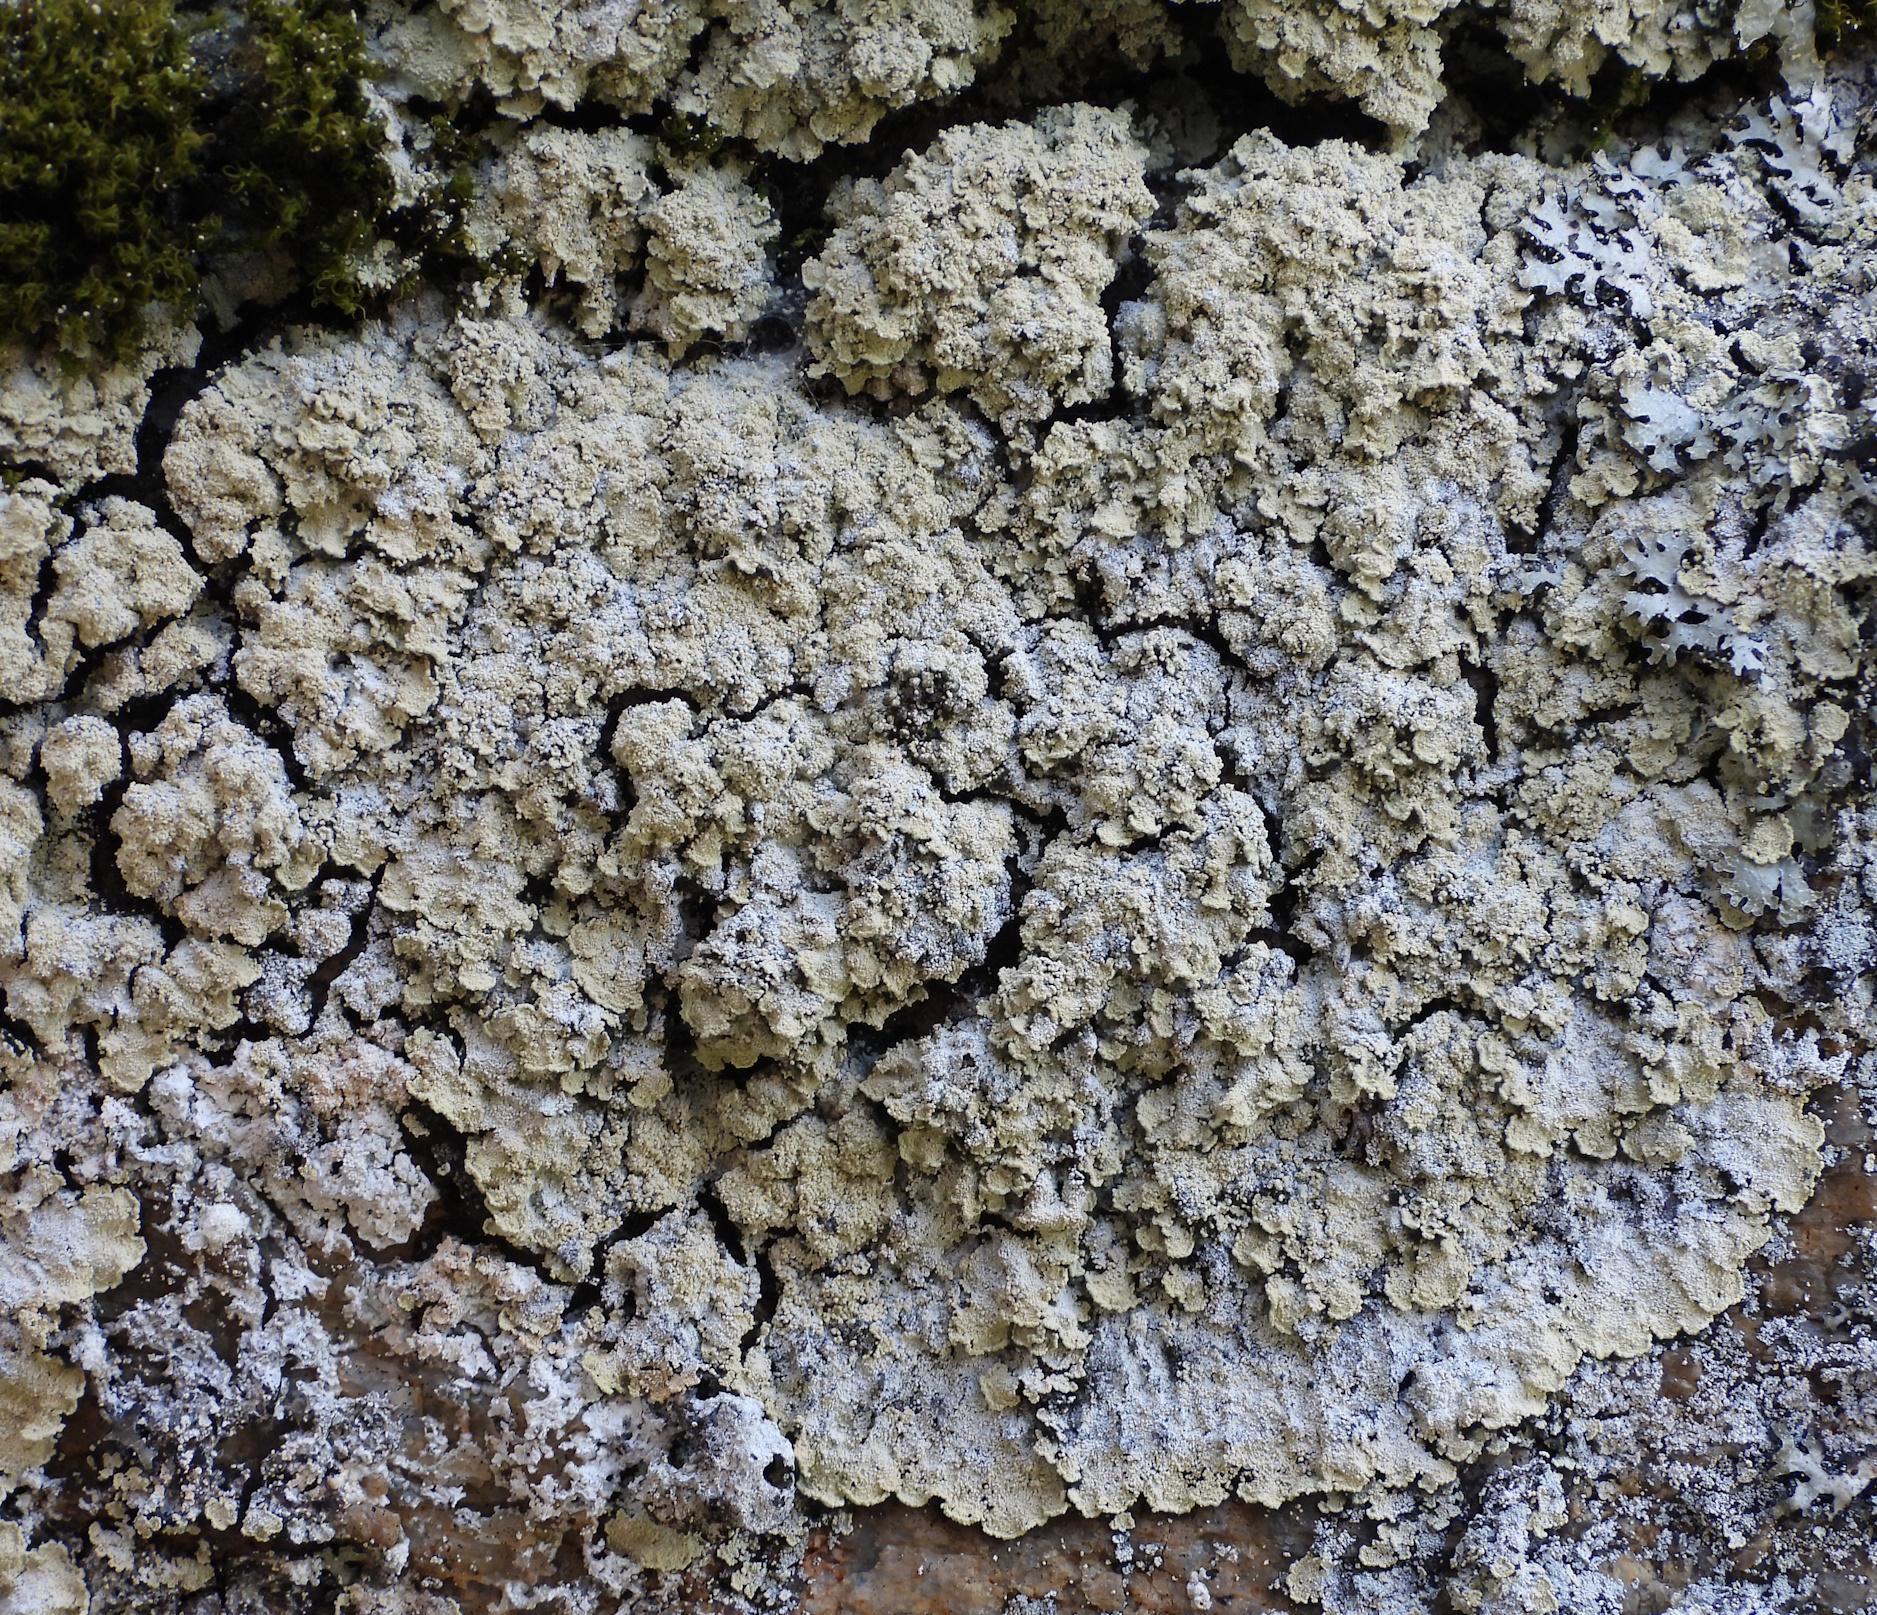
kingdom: Fungi
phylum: Ascomycota
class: Lecanoromycetes
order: Lecanorales
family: Stereocaulaceae
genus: Lepraria
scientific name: Lepraria membranacea
